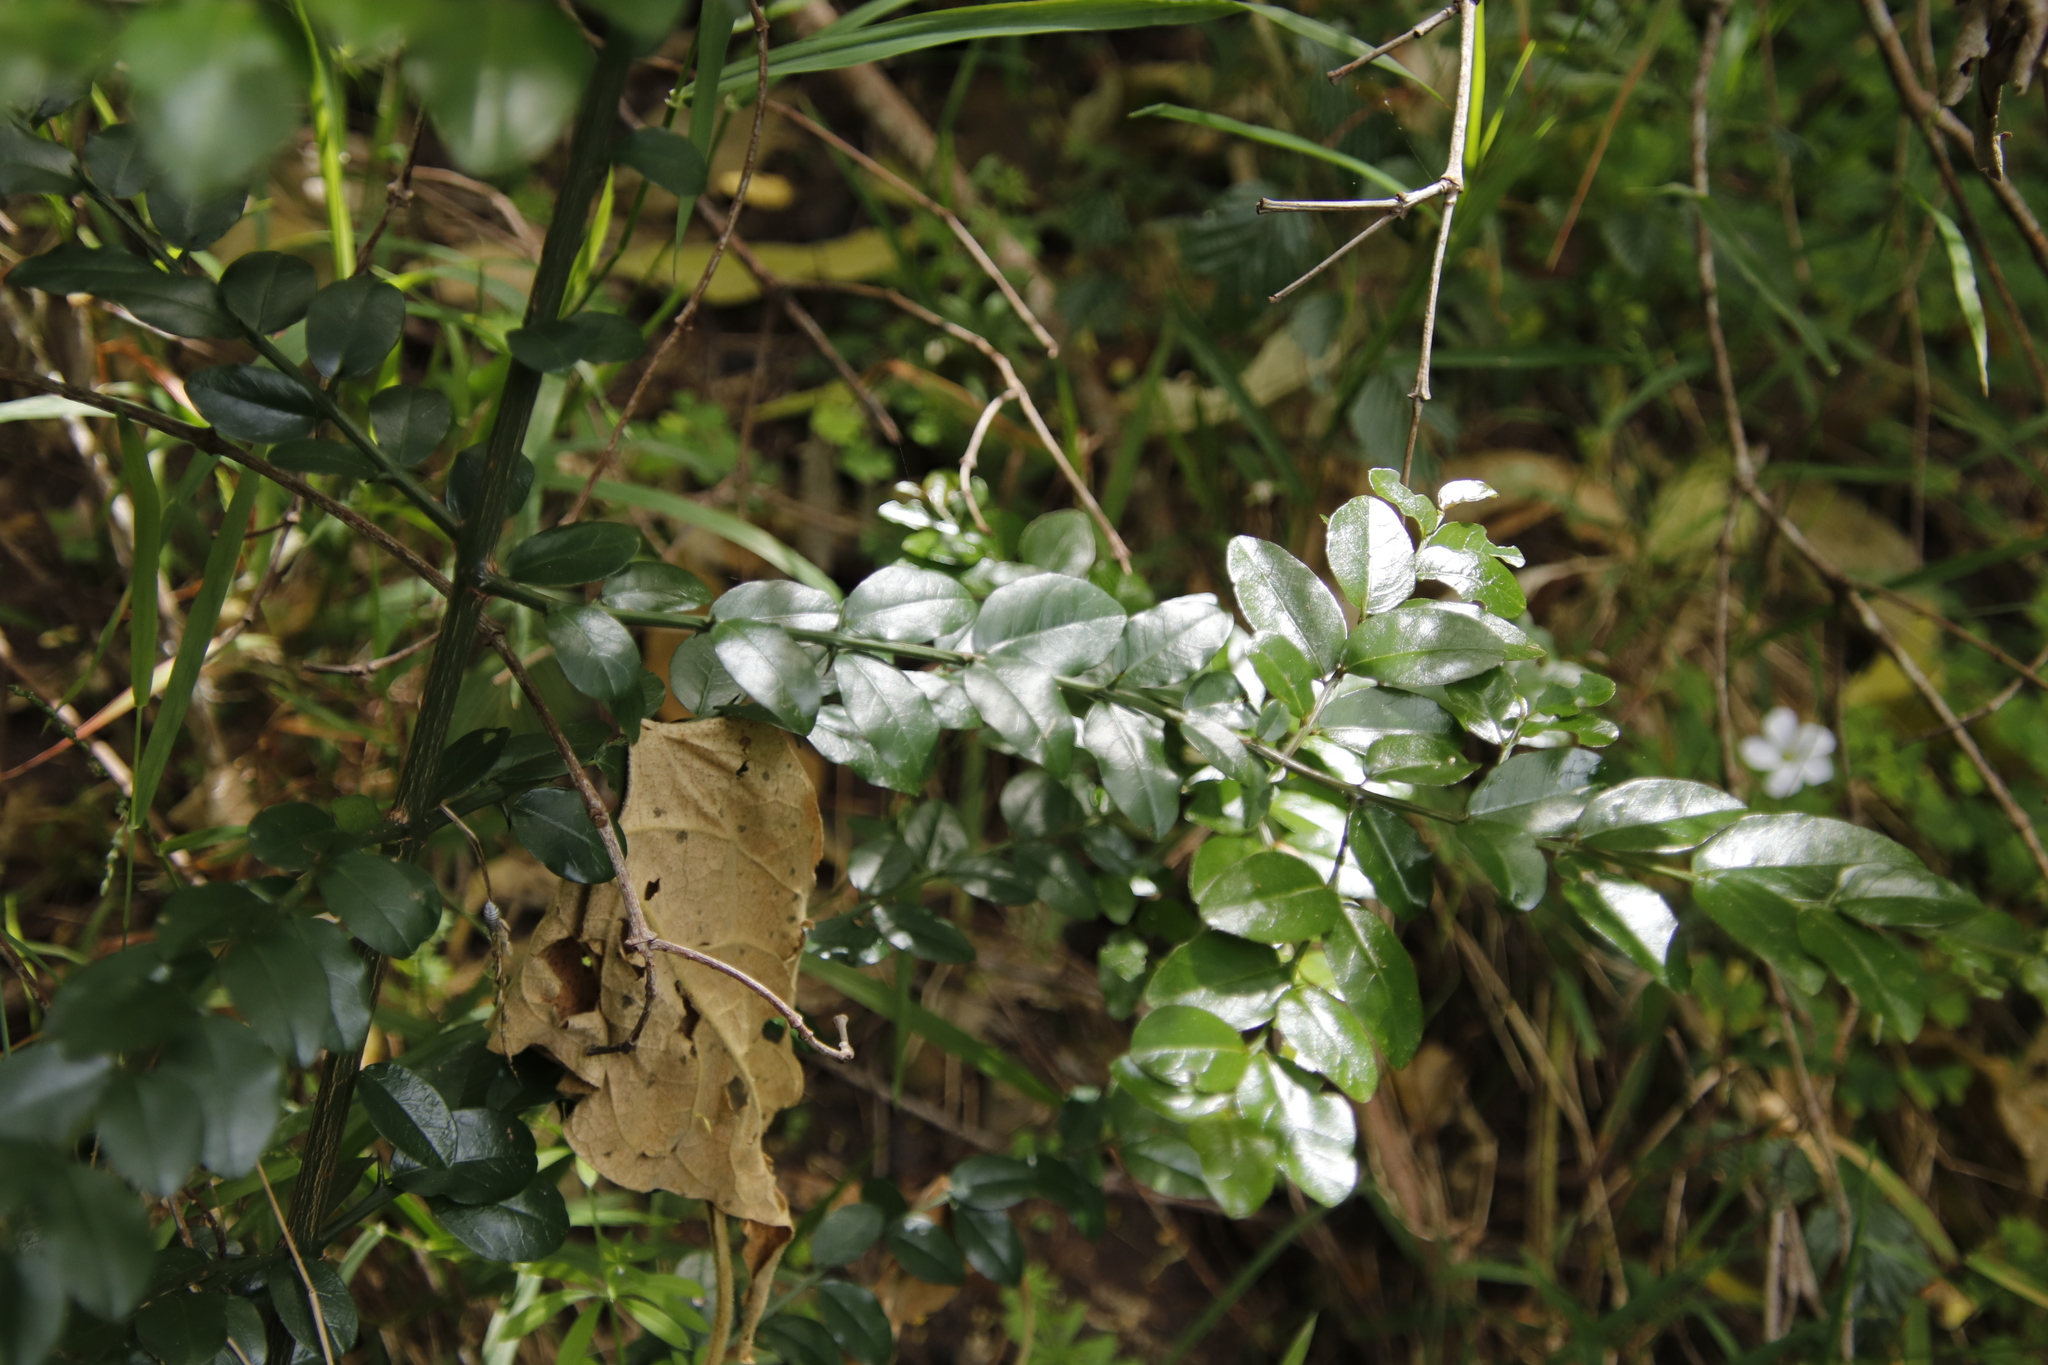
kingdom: Plantae
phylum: Tracheophyta
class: Magnoliopsida
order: Rosales
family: Rhamnaceae
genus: Scutia
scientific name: Scutia myrtina
